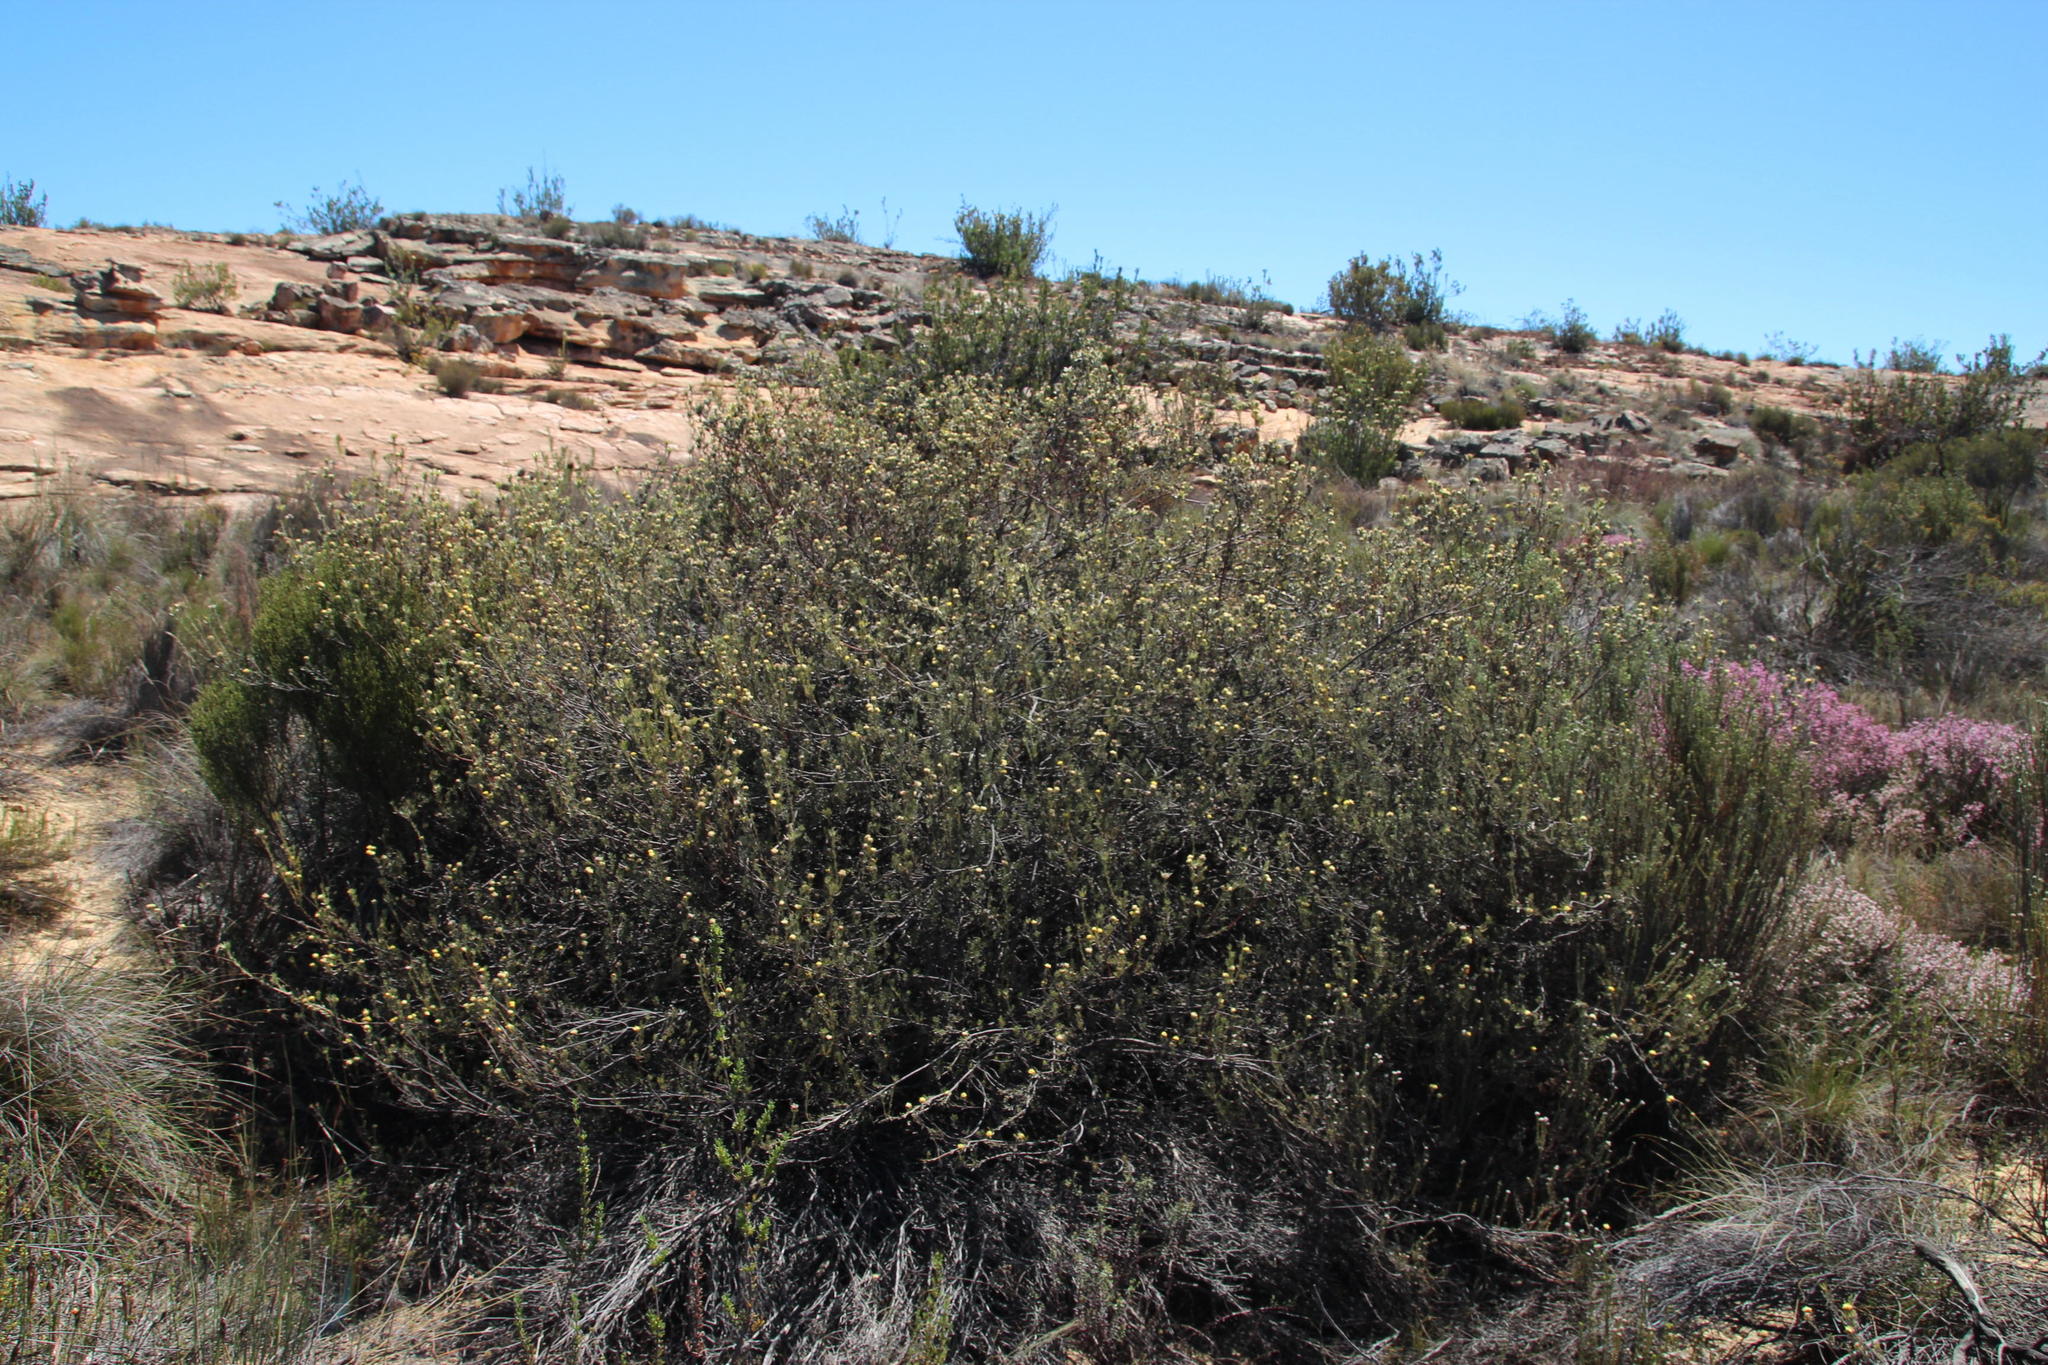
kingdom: Plantae
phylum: Tracheophyta
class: Magnoliopsida
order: Proteales
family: Proteaceae
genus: Leucadendron
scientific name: Leucadendron nitidum
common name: Bokkeveld conebush
